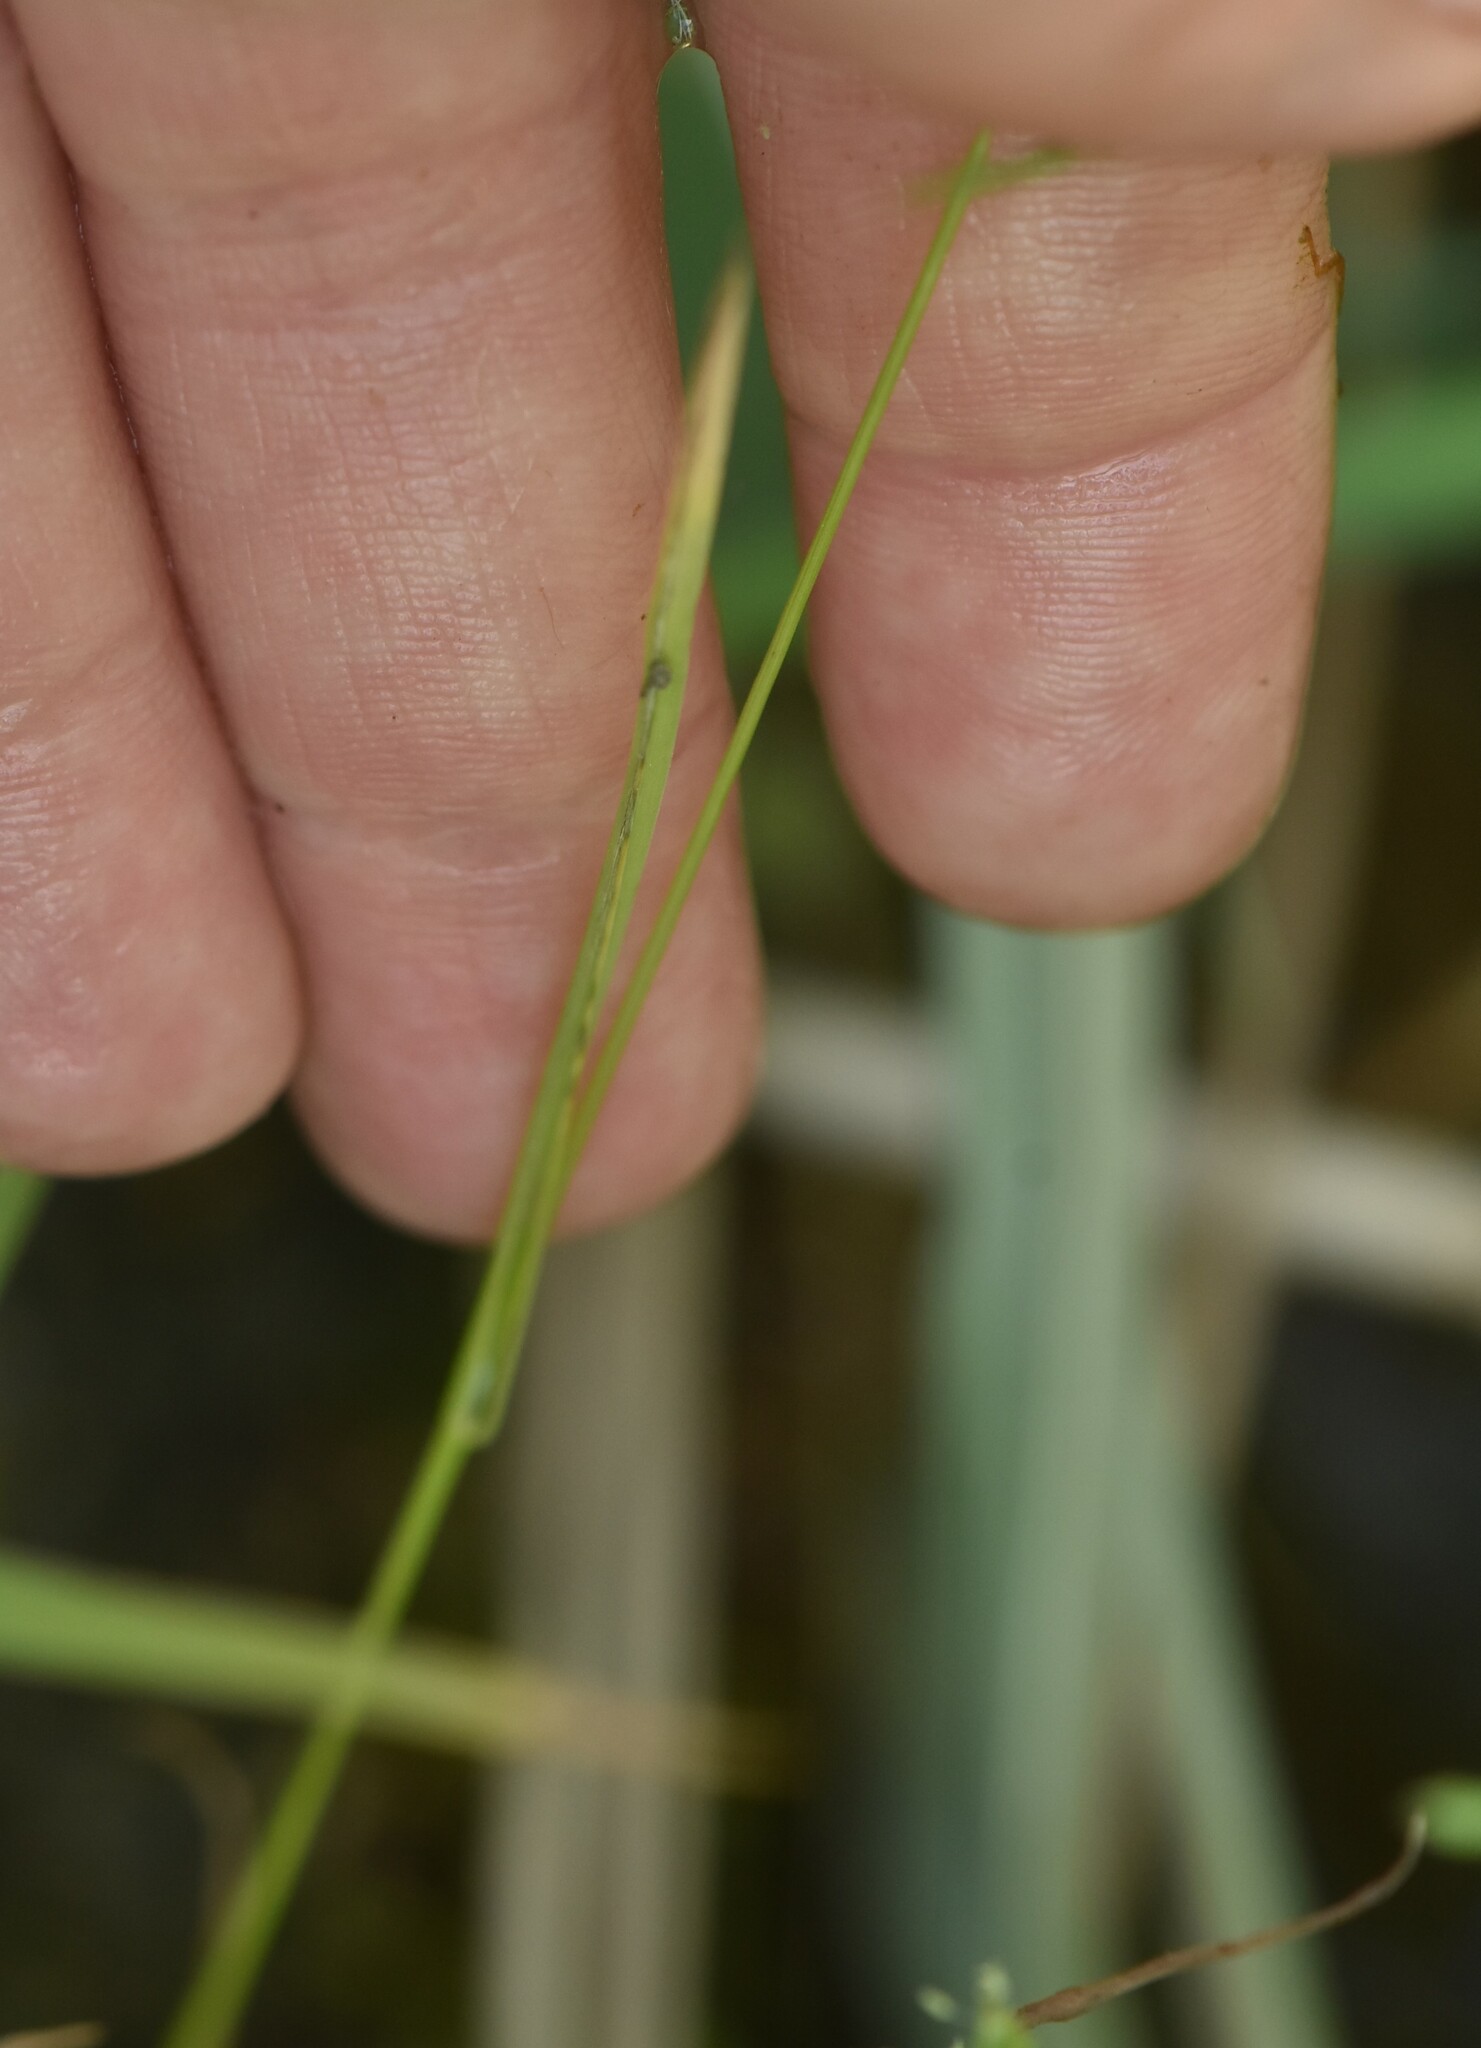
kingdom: Plantae
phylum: Tracheophyta
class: Liliopsida
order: Poales
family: Poaceae
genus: Poa
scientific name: Poa trivialis
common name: Rough bluegrass
